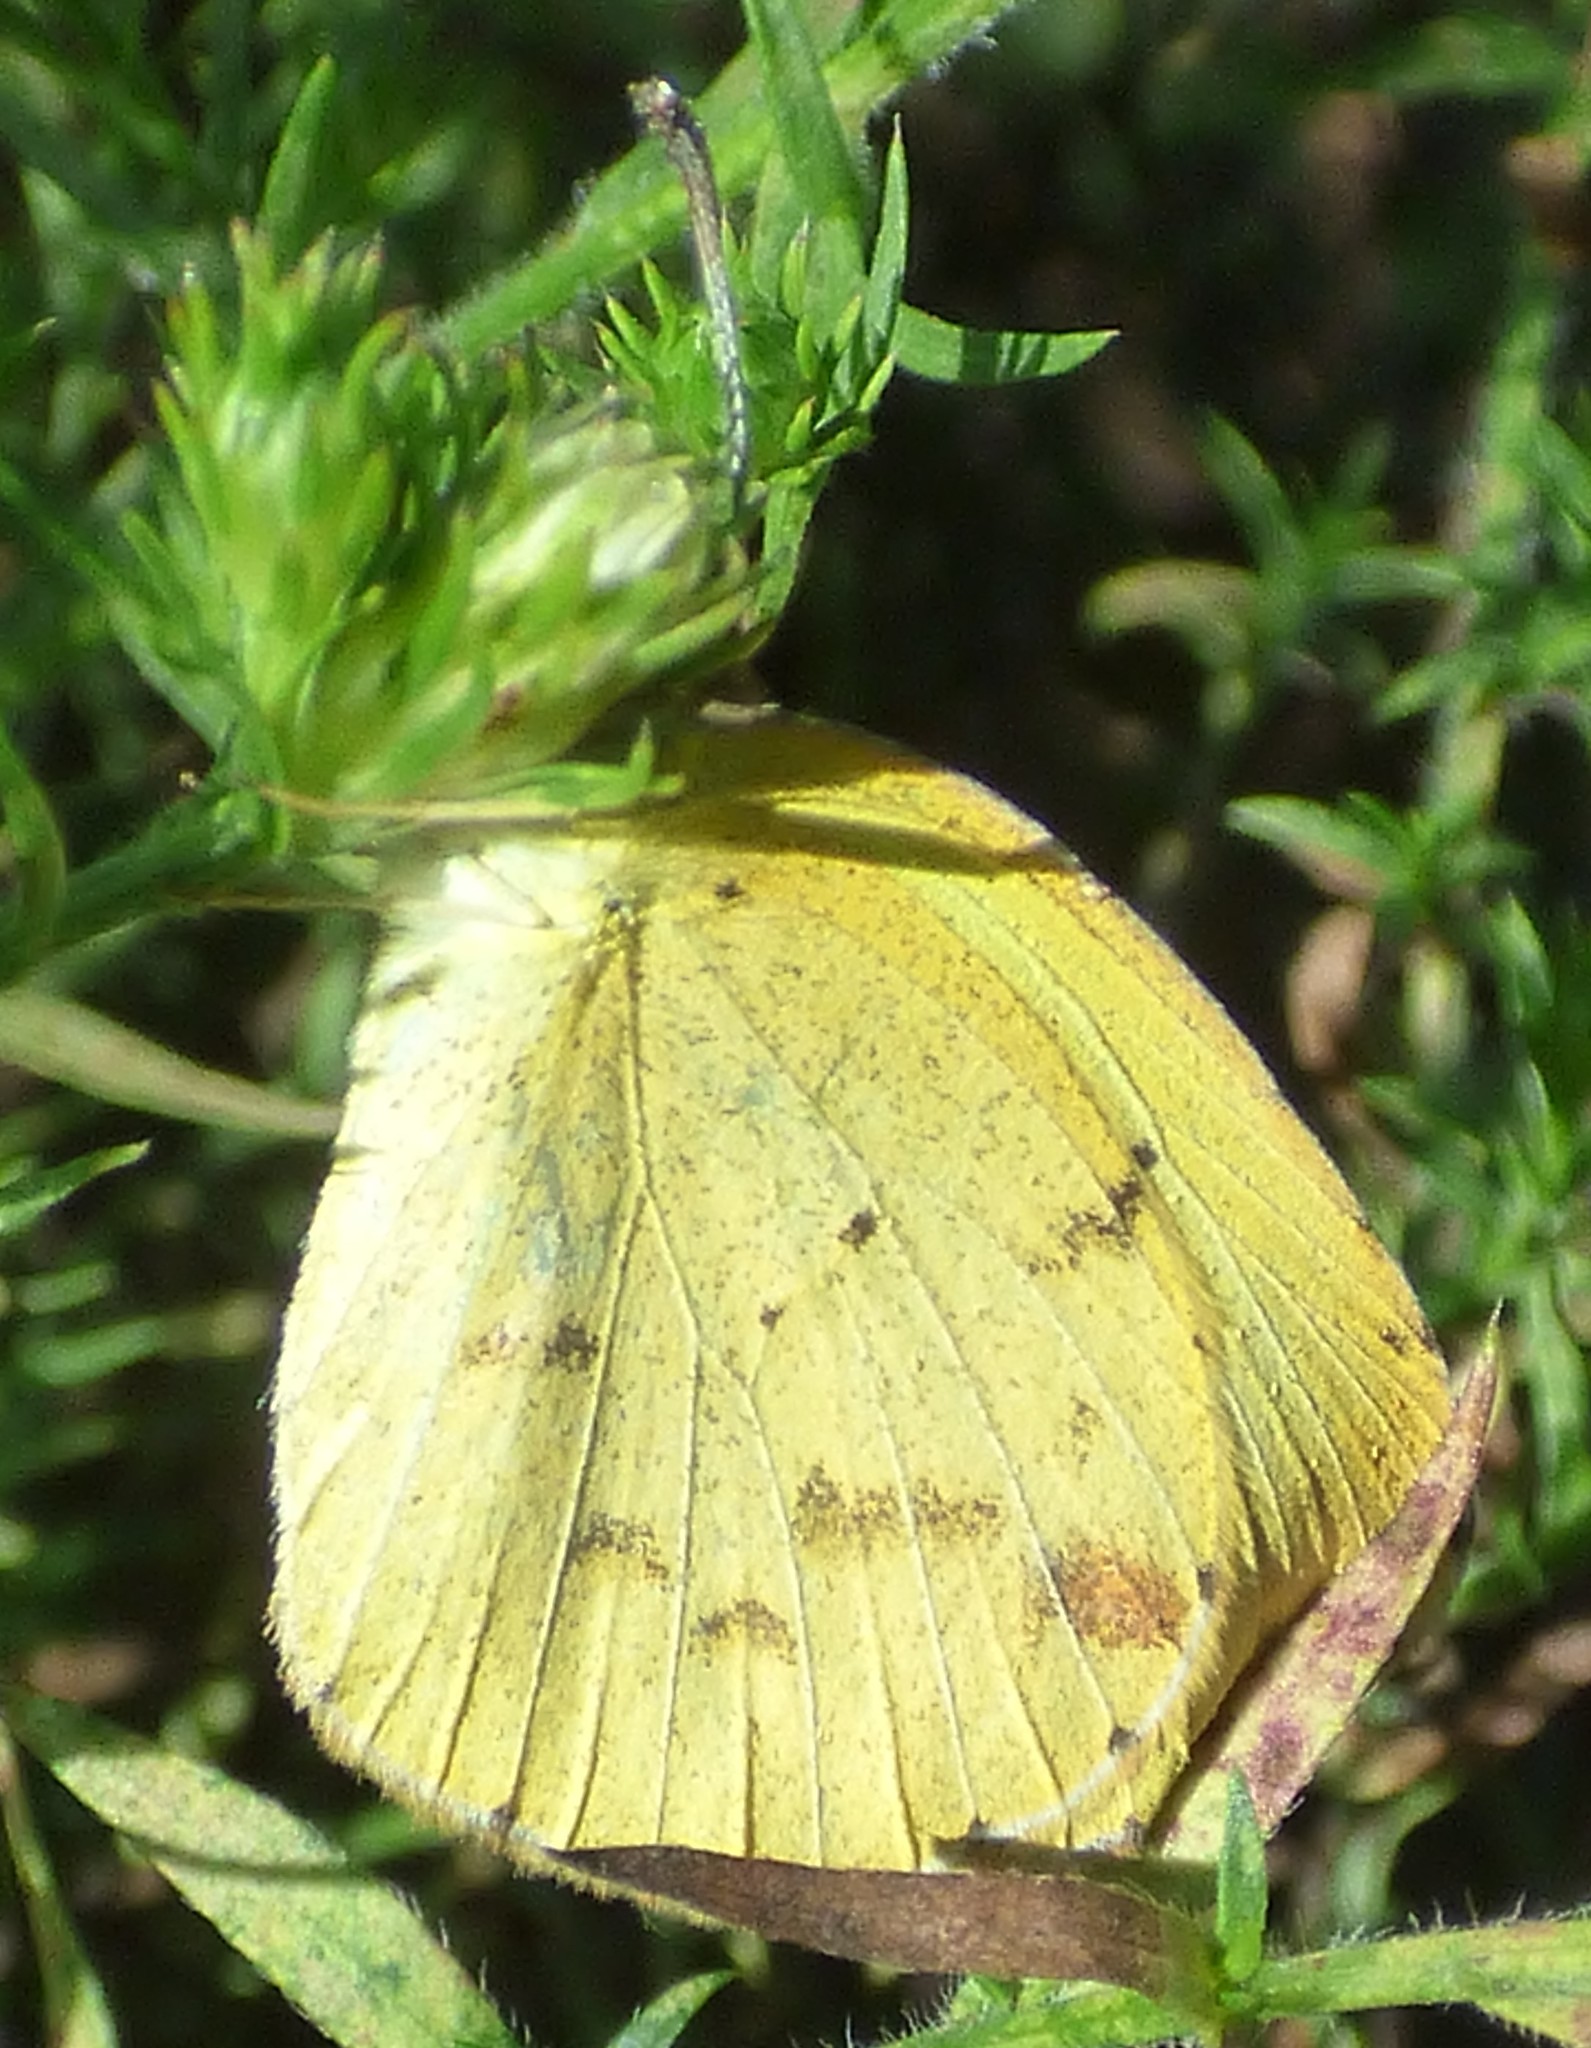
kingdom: Animalia
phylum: Arthropoda
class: Insecta
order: Lepidoptera
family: Pieridae
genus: Pyrisitia
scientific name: Pyrisitia lisa
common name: Little yellow
